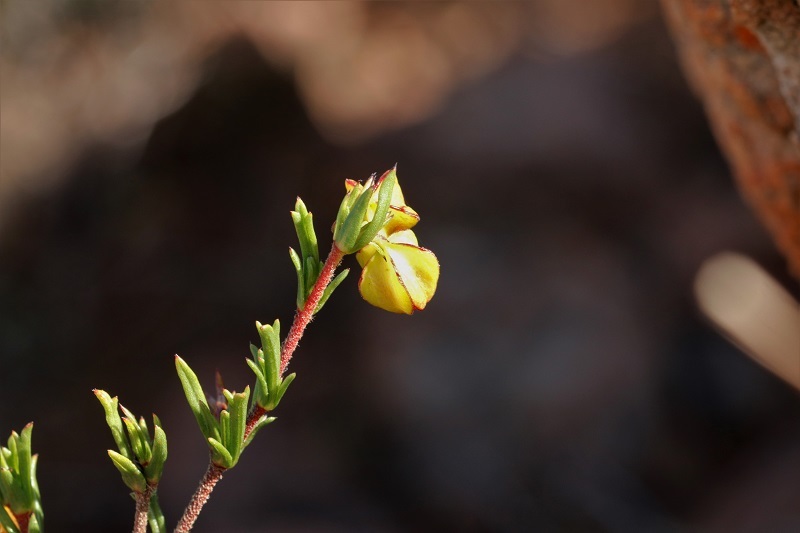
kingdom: Plantae
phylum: Tracheophyta
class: Magnoliopsida
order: Malvales
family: Malvaceae
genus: Hermannia
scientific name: Hermannia angularis
